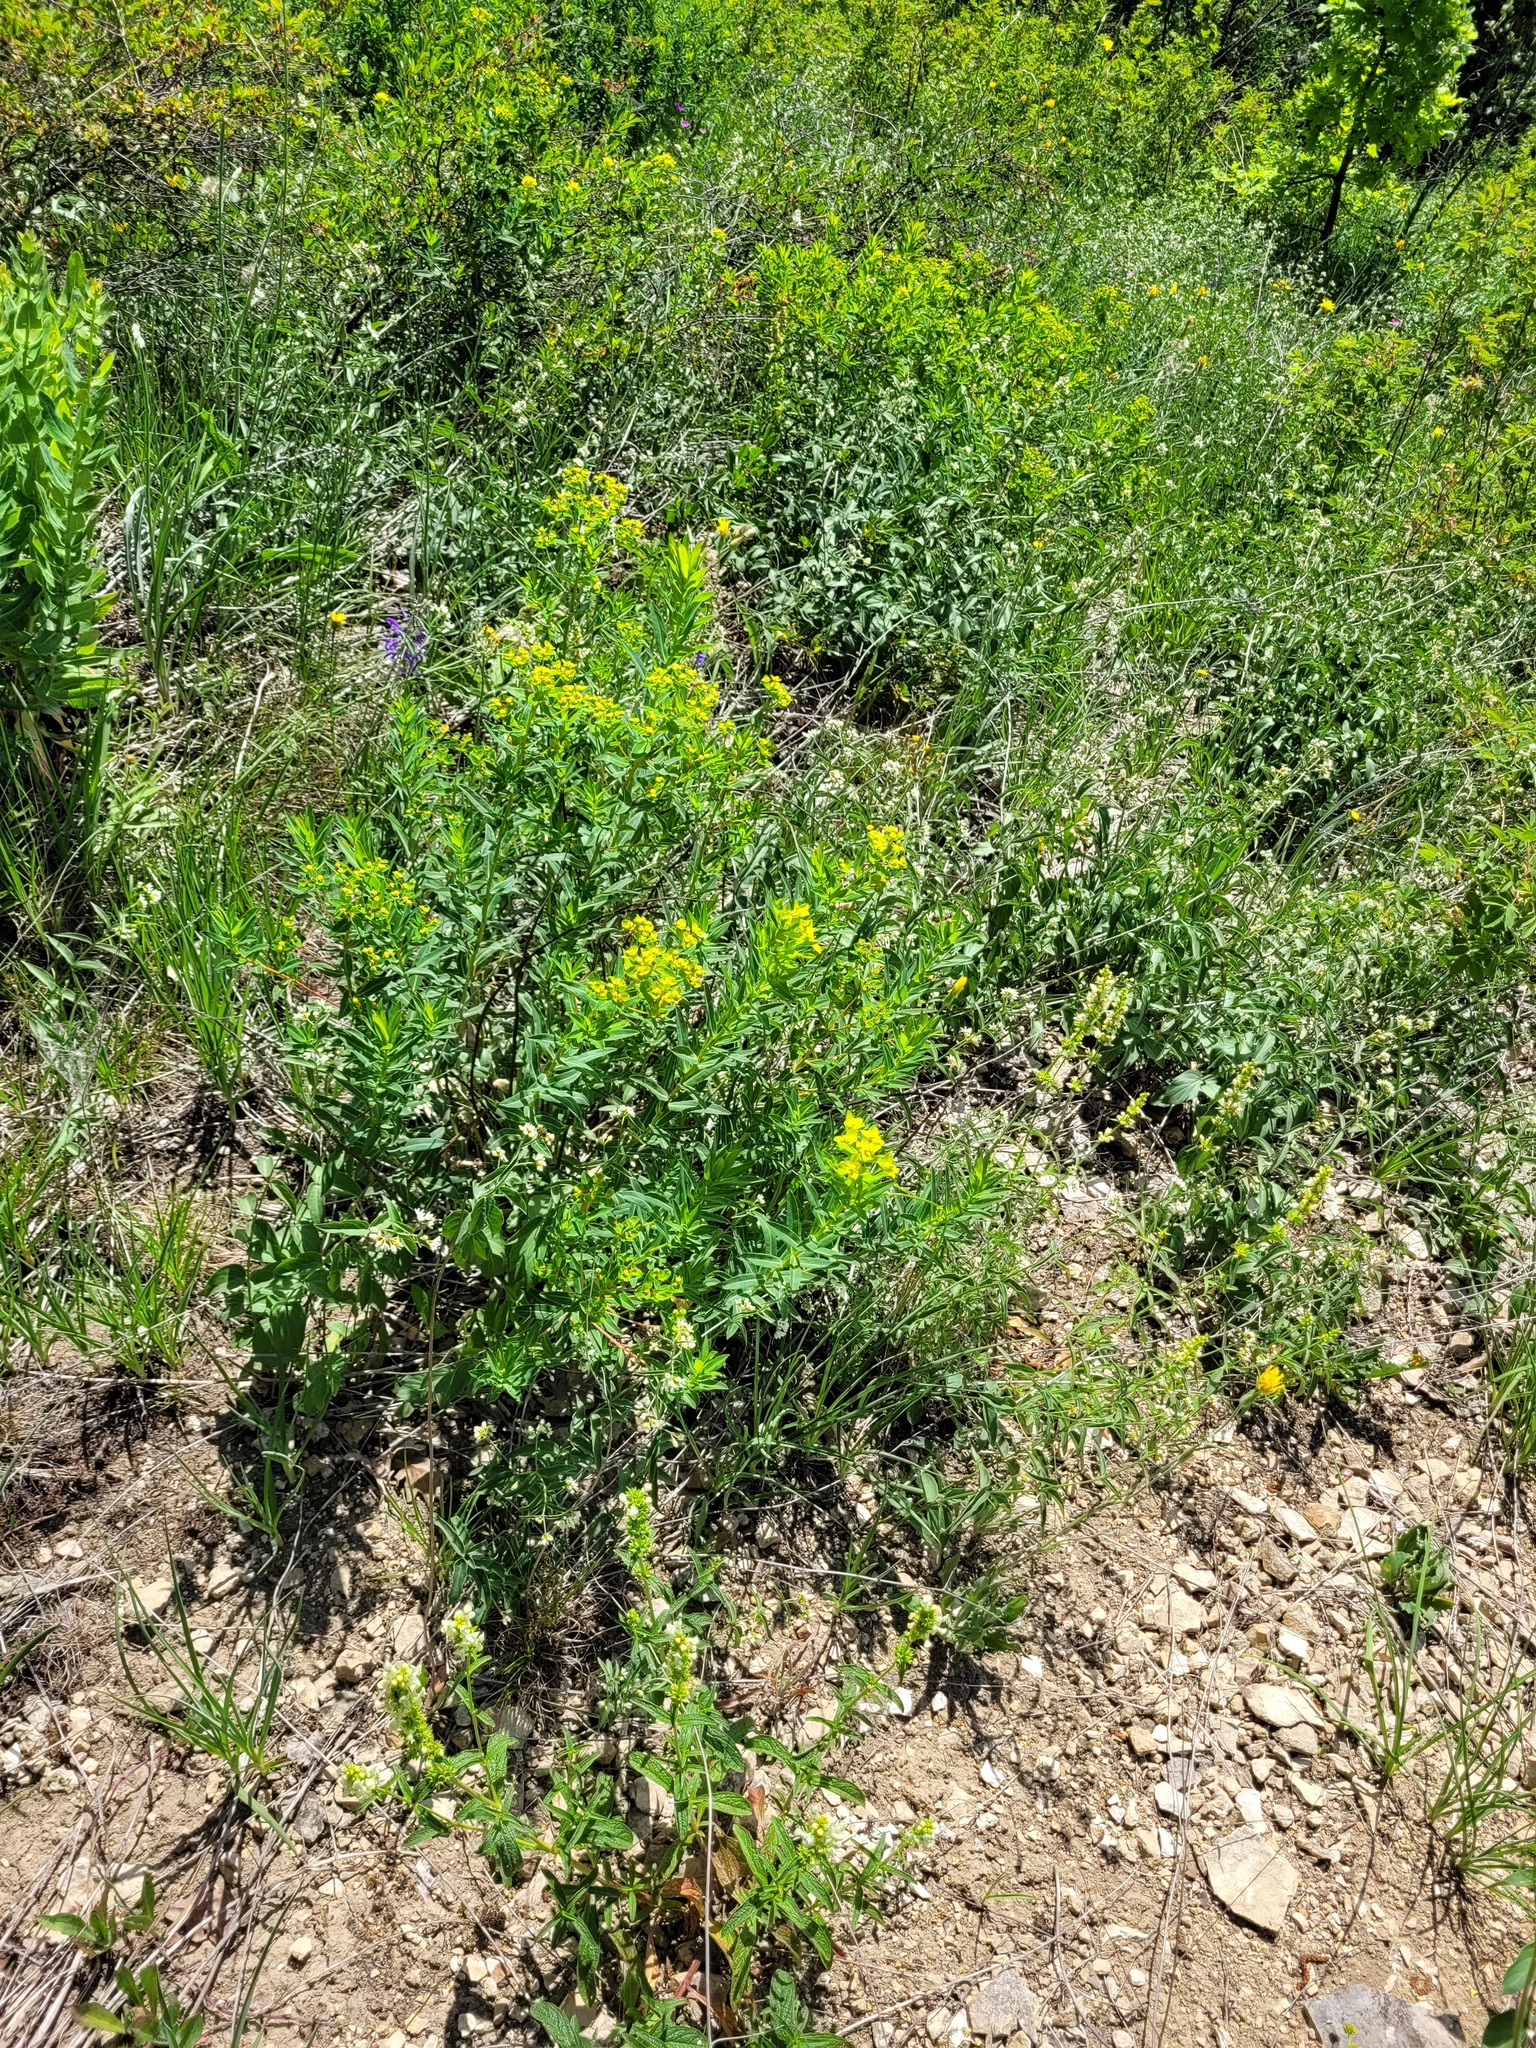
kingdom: Plantae
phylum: Tracheophyta
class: Magnoliopsida
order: Malpighiales
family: Euphorbiaceae
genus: Euphorbia
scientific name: Euphorbia semivillosa
